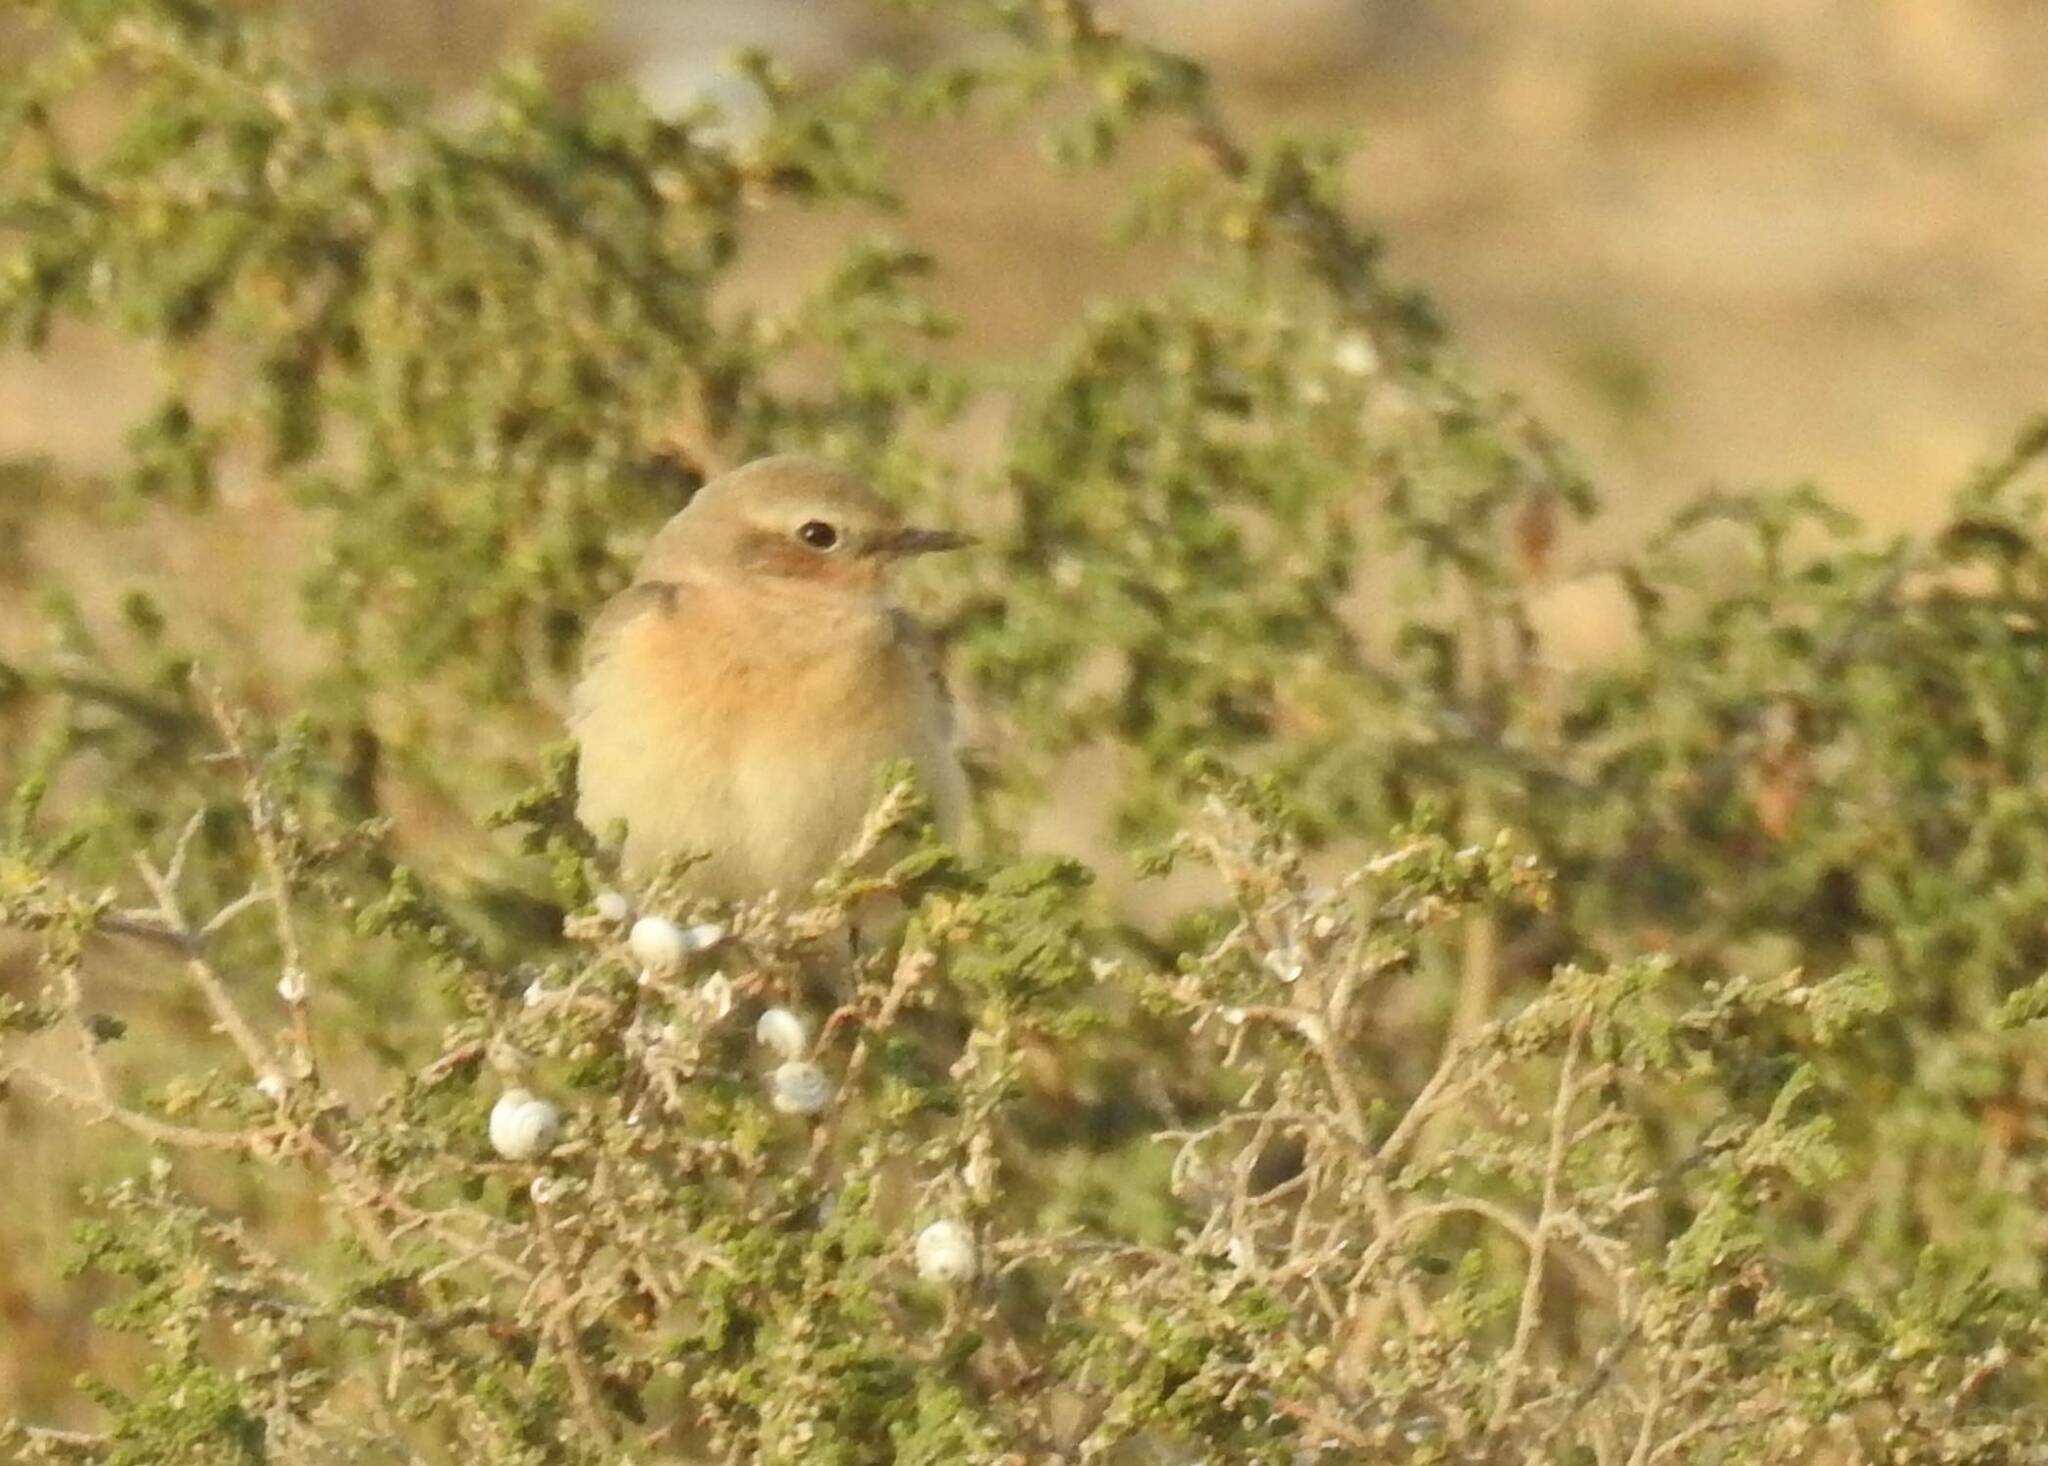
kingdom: Animalia
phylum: Chordata
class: Aves
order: Passeriformes
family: Muscicapidae
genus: Oenanthe
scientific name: Oenanthe hispanica
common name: Black-eared wheatear
